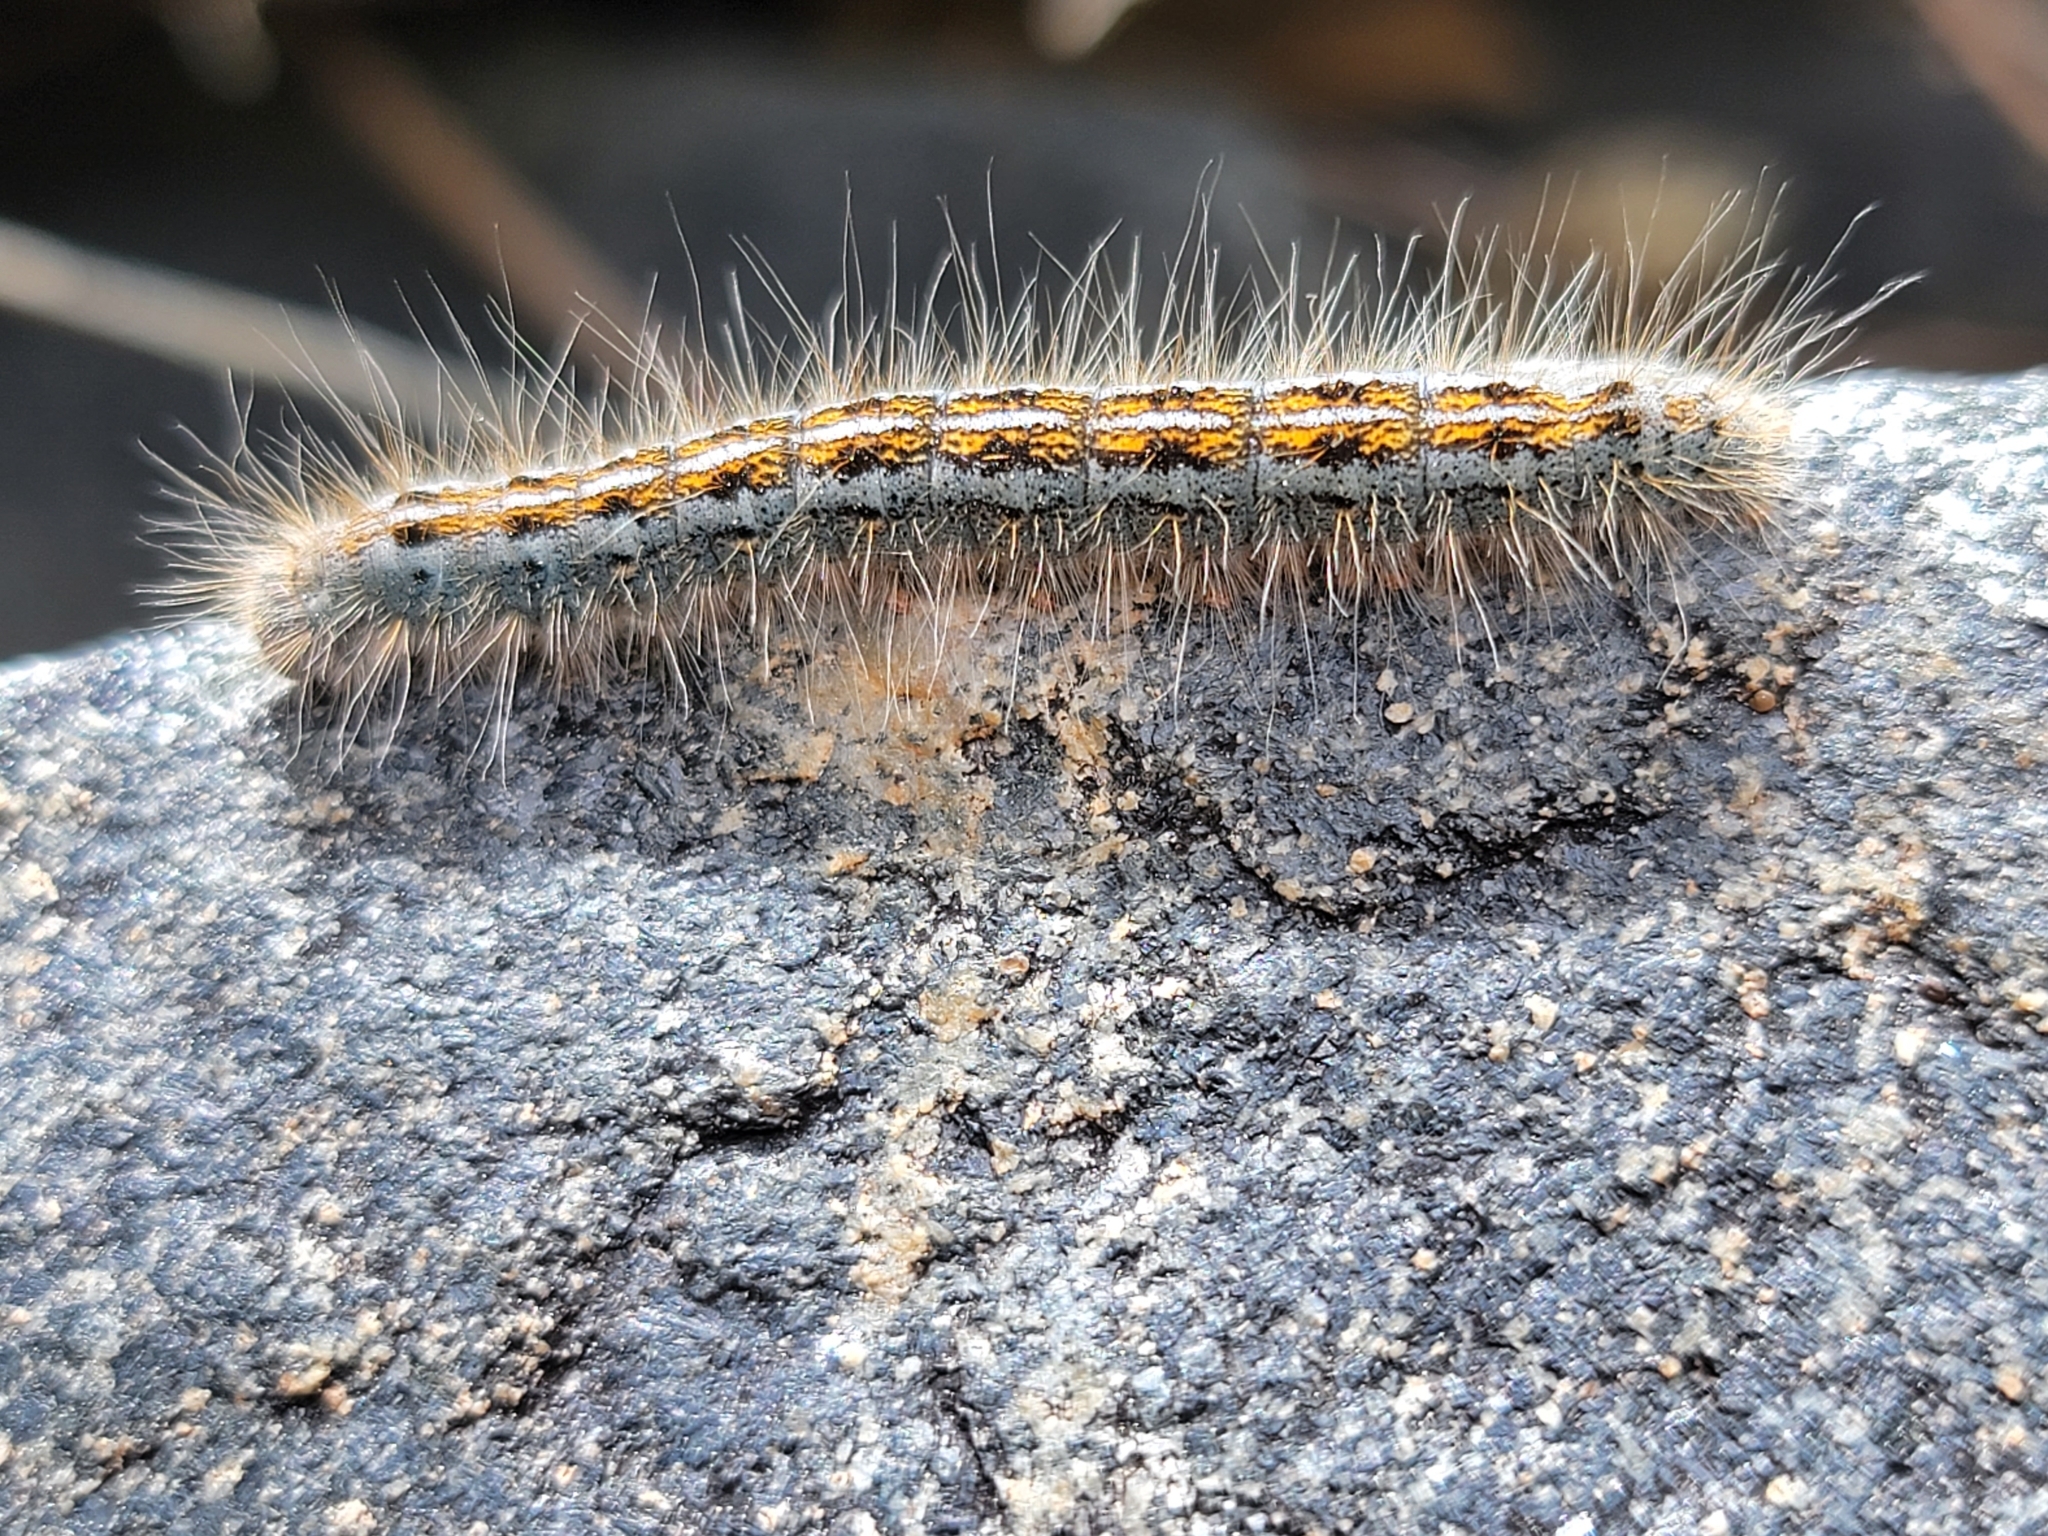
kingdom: Animalia
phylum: Arthropoda
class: Insecta
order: Lepidoptera
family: Lasiocampidae
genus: Malacosoma
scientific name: Malacosoma californica
